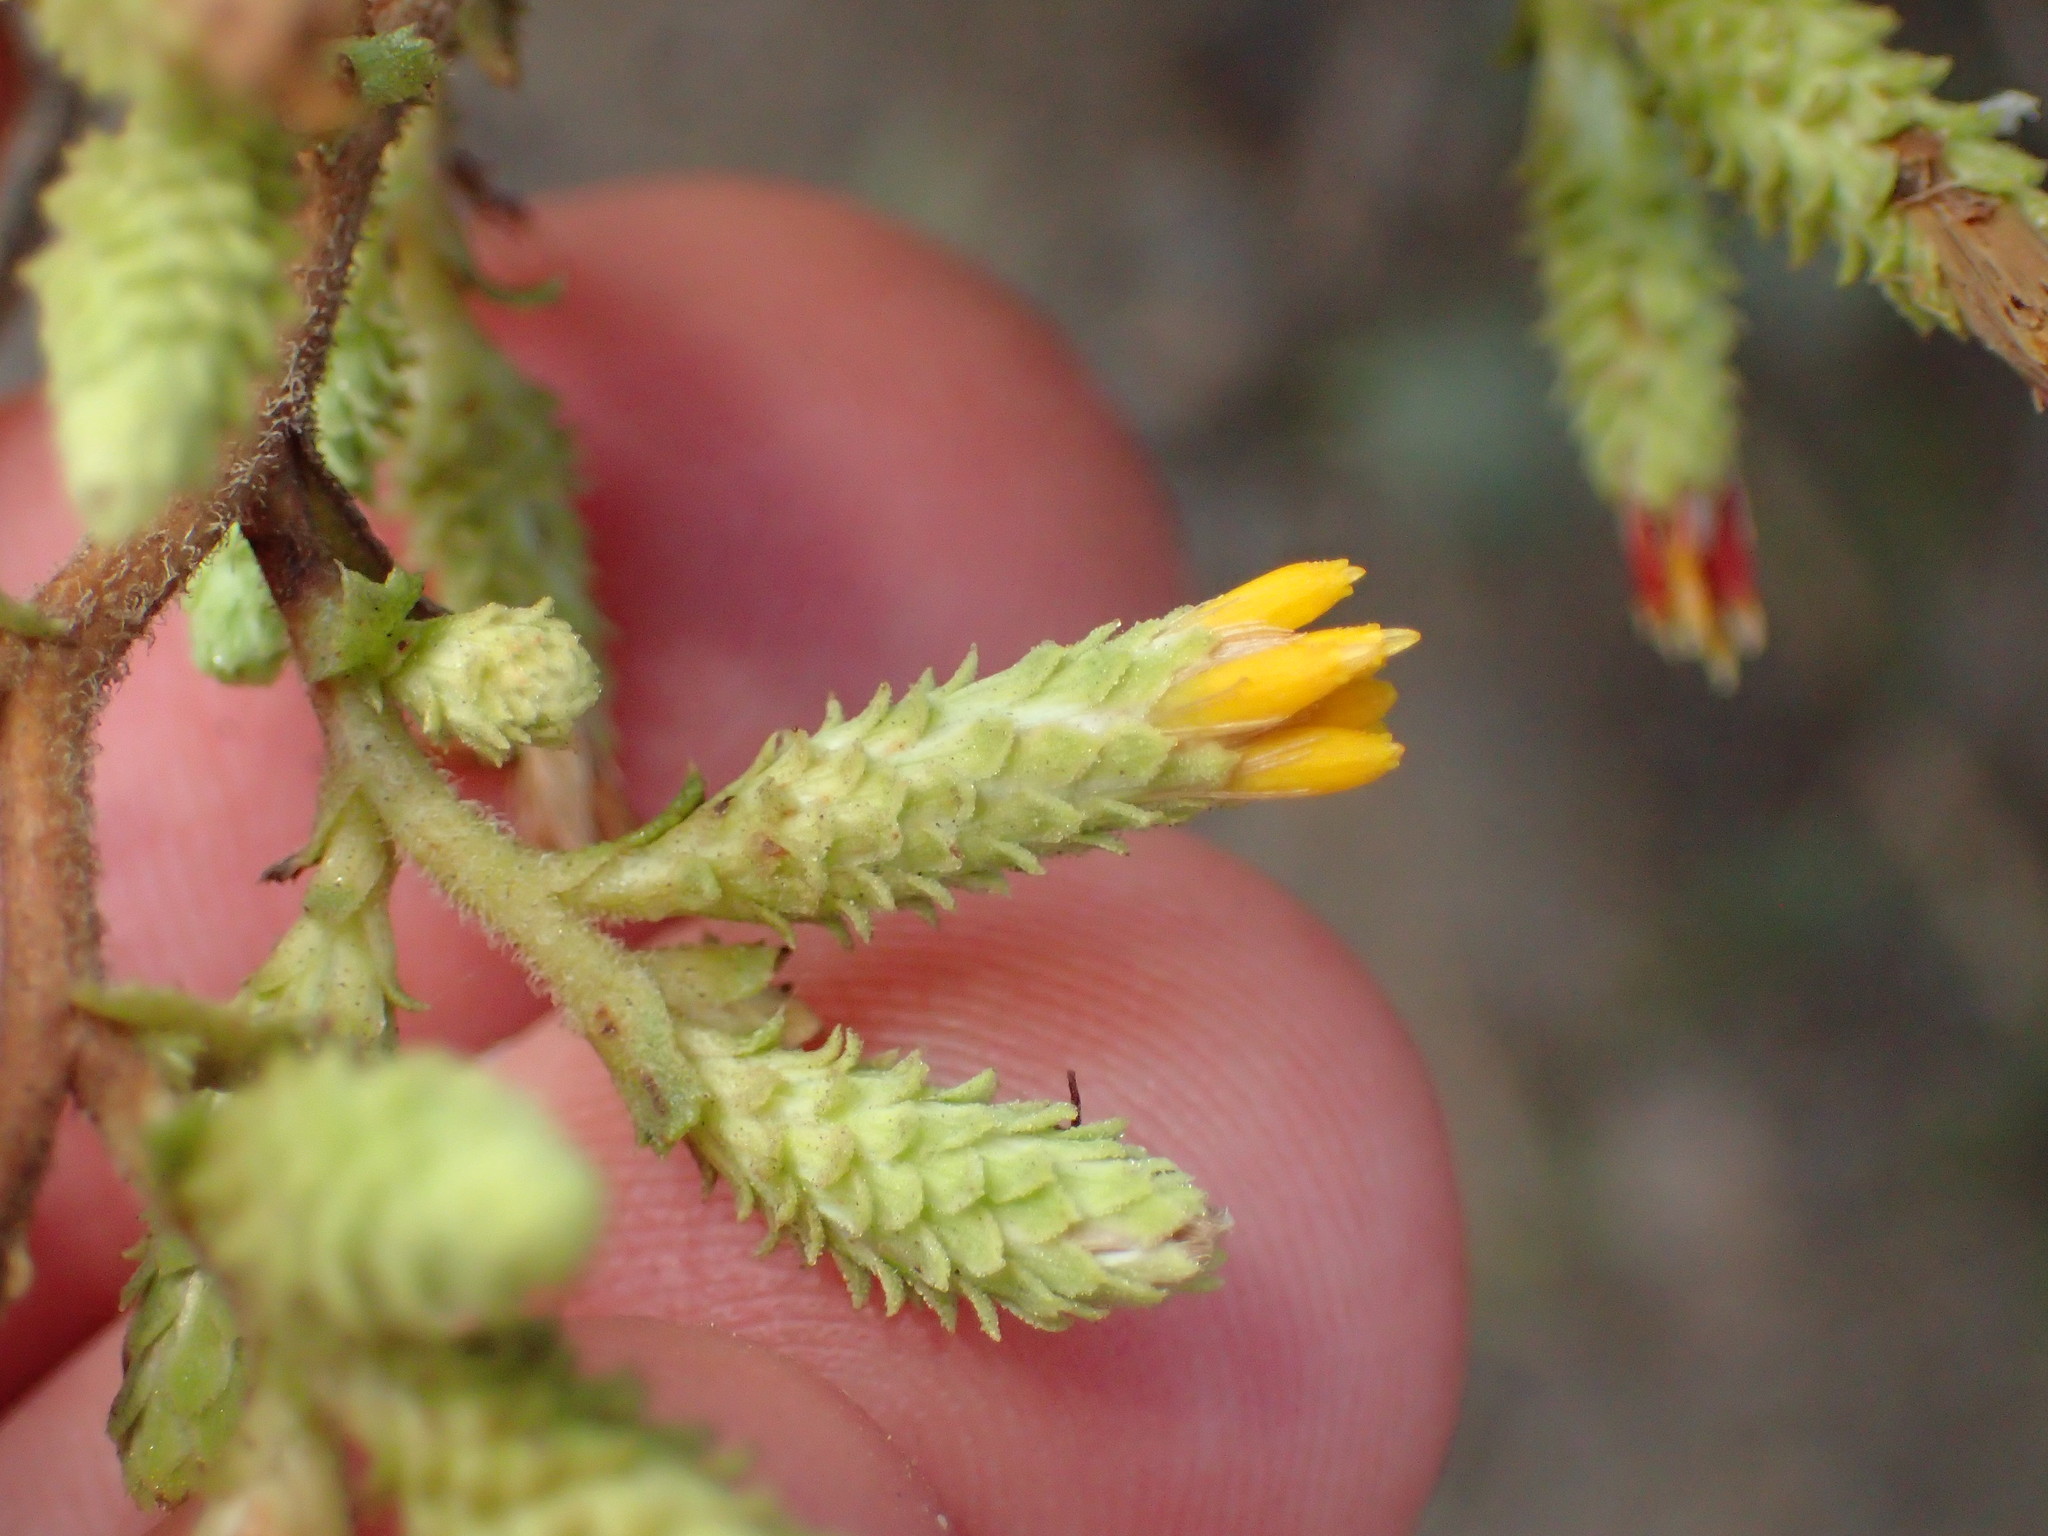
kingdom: Plantae
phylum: Tracheophyta
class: Magnoliopsida
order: Asterales
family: Asteraceae
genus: Hazardia
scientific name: Hazardia squarrosa
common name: Saw-tooth goldenbush
